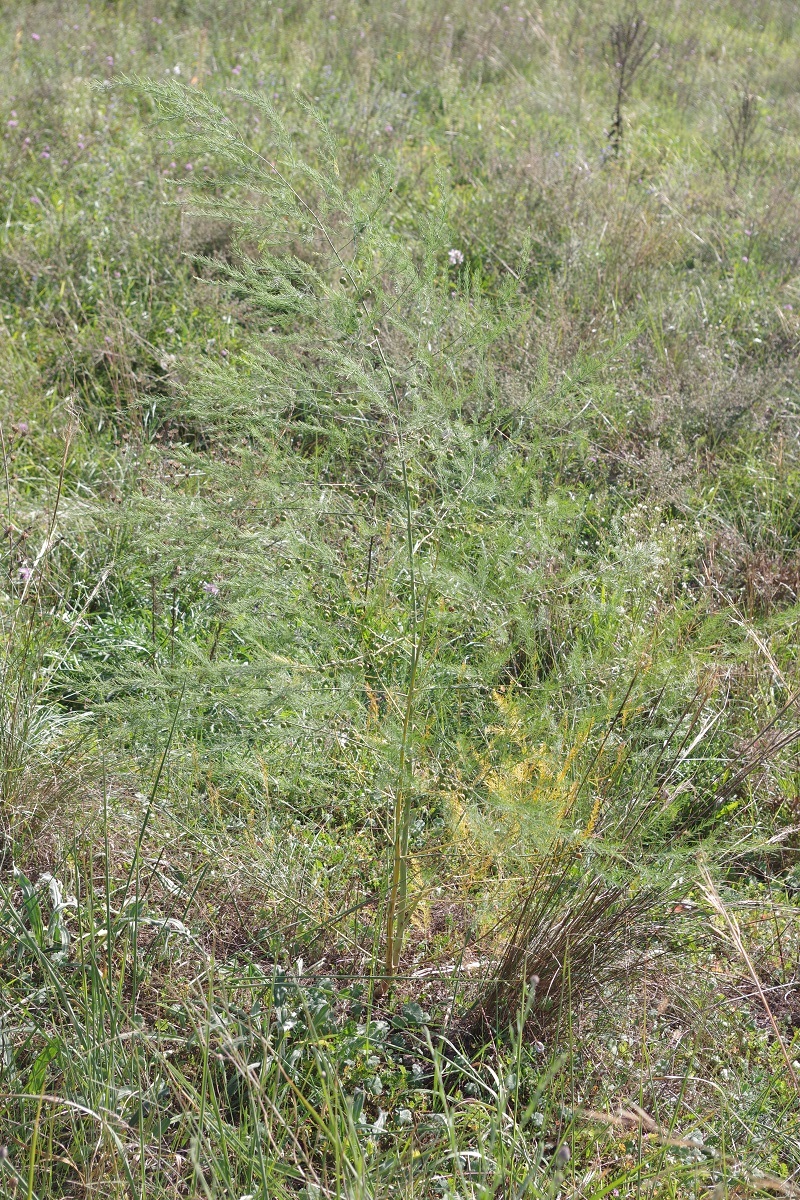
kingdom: Plantae
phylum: Tracheophyta
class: Liliopsida
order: Asparagales
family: Asparagaceae
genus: Asparagus
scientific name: Asparagus officinalis
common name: Garden asparagus
